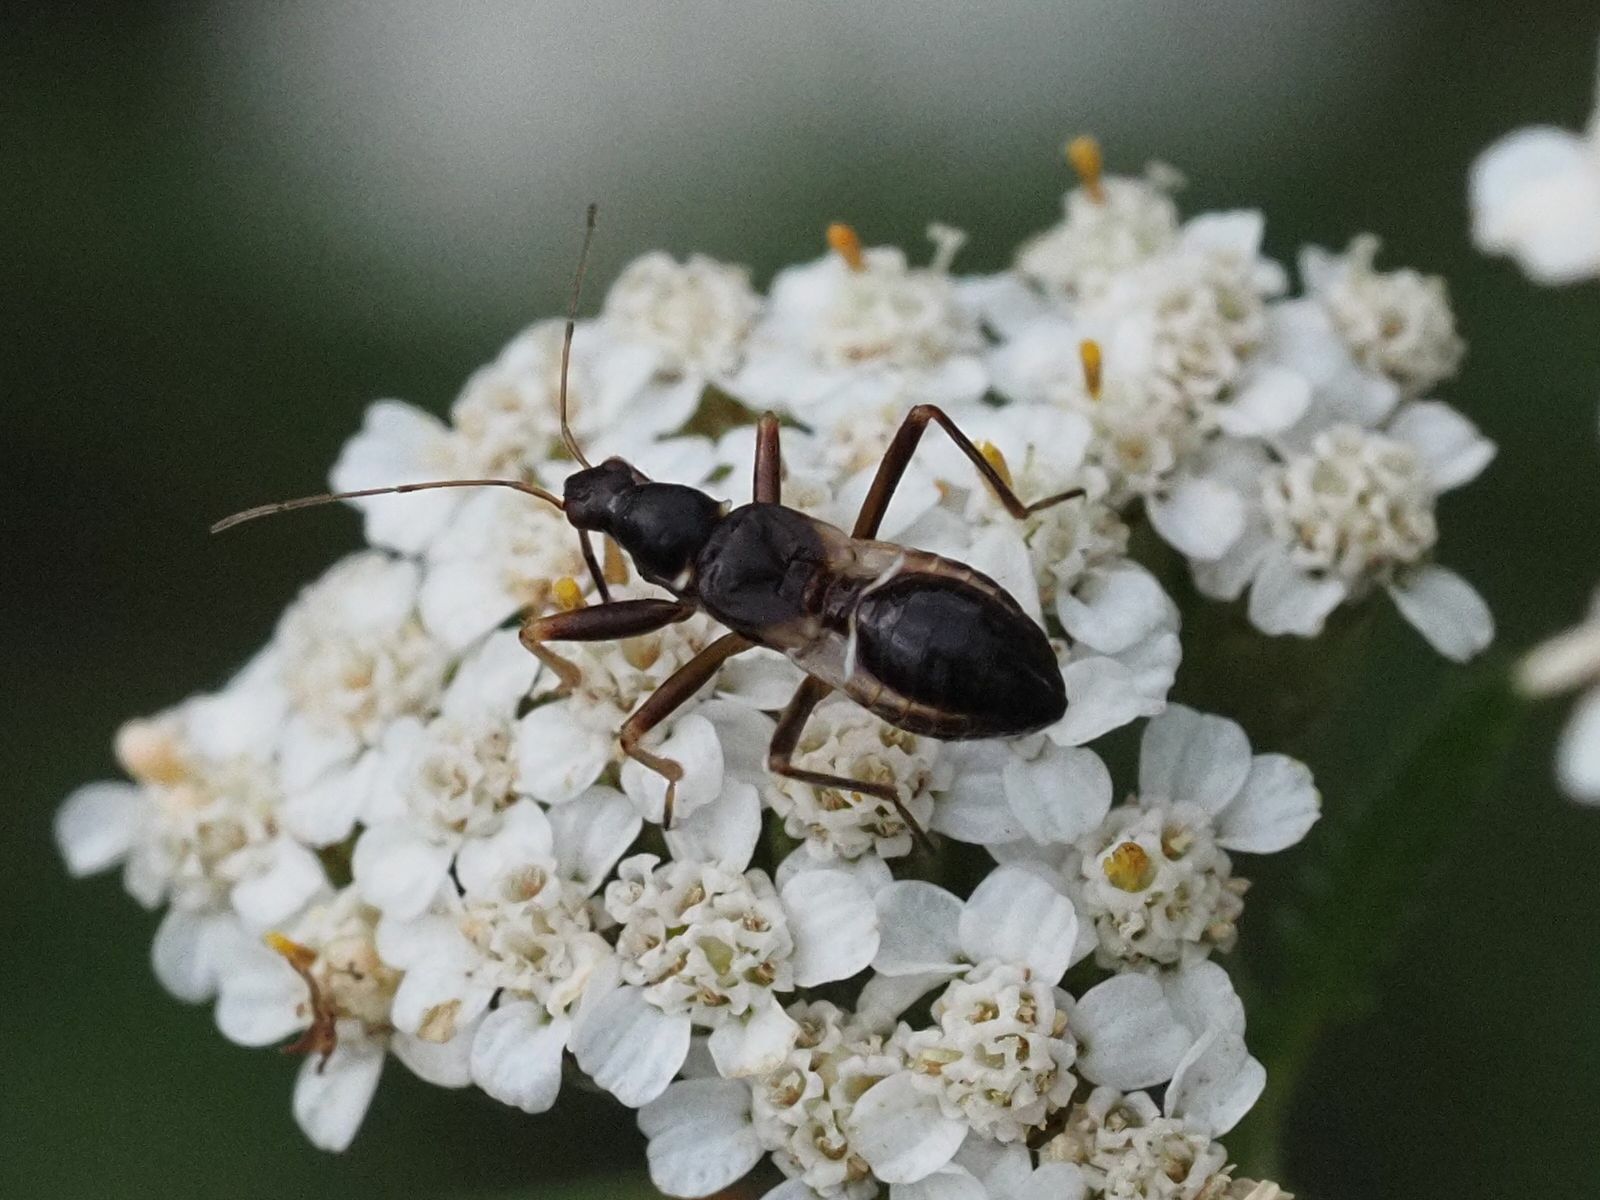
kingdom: Animalia
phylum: Arthropoda
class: Insecta
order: Hemiptera
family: Nabidae
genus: Himacerus
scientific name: Himacerus mirmicoides
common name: Ant damsel bug
